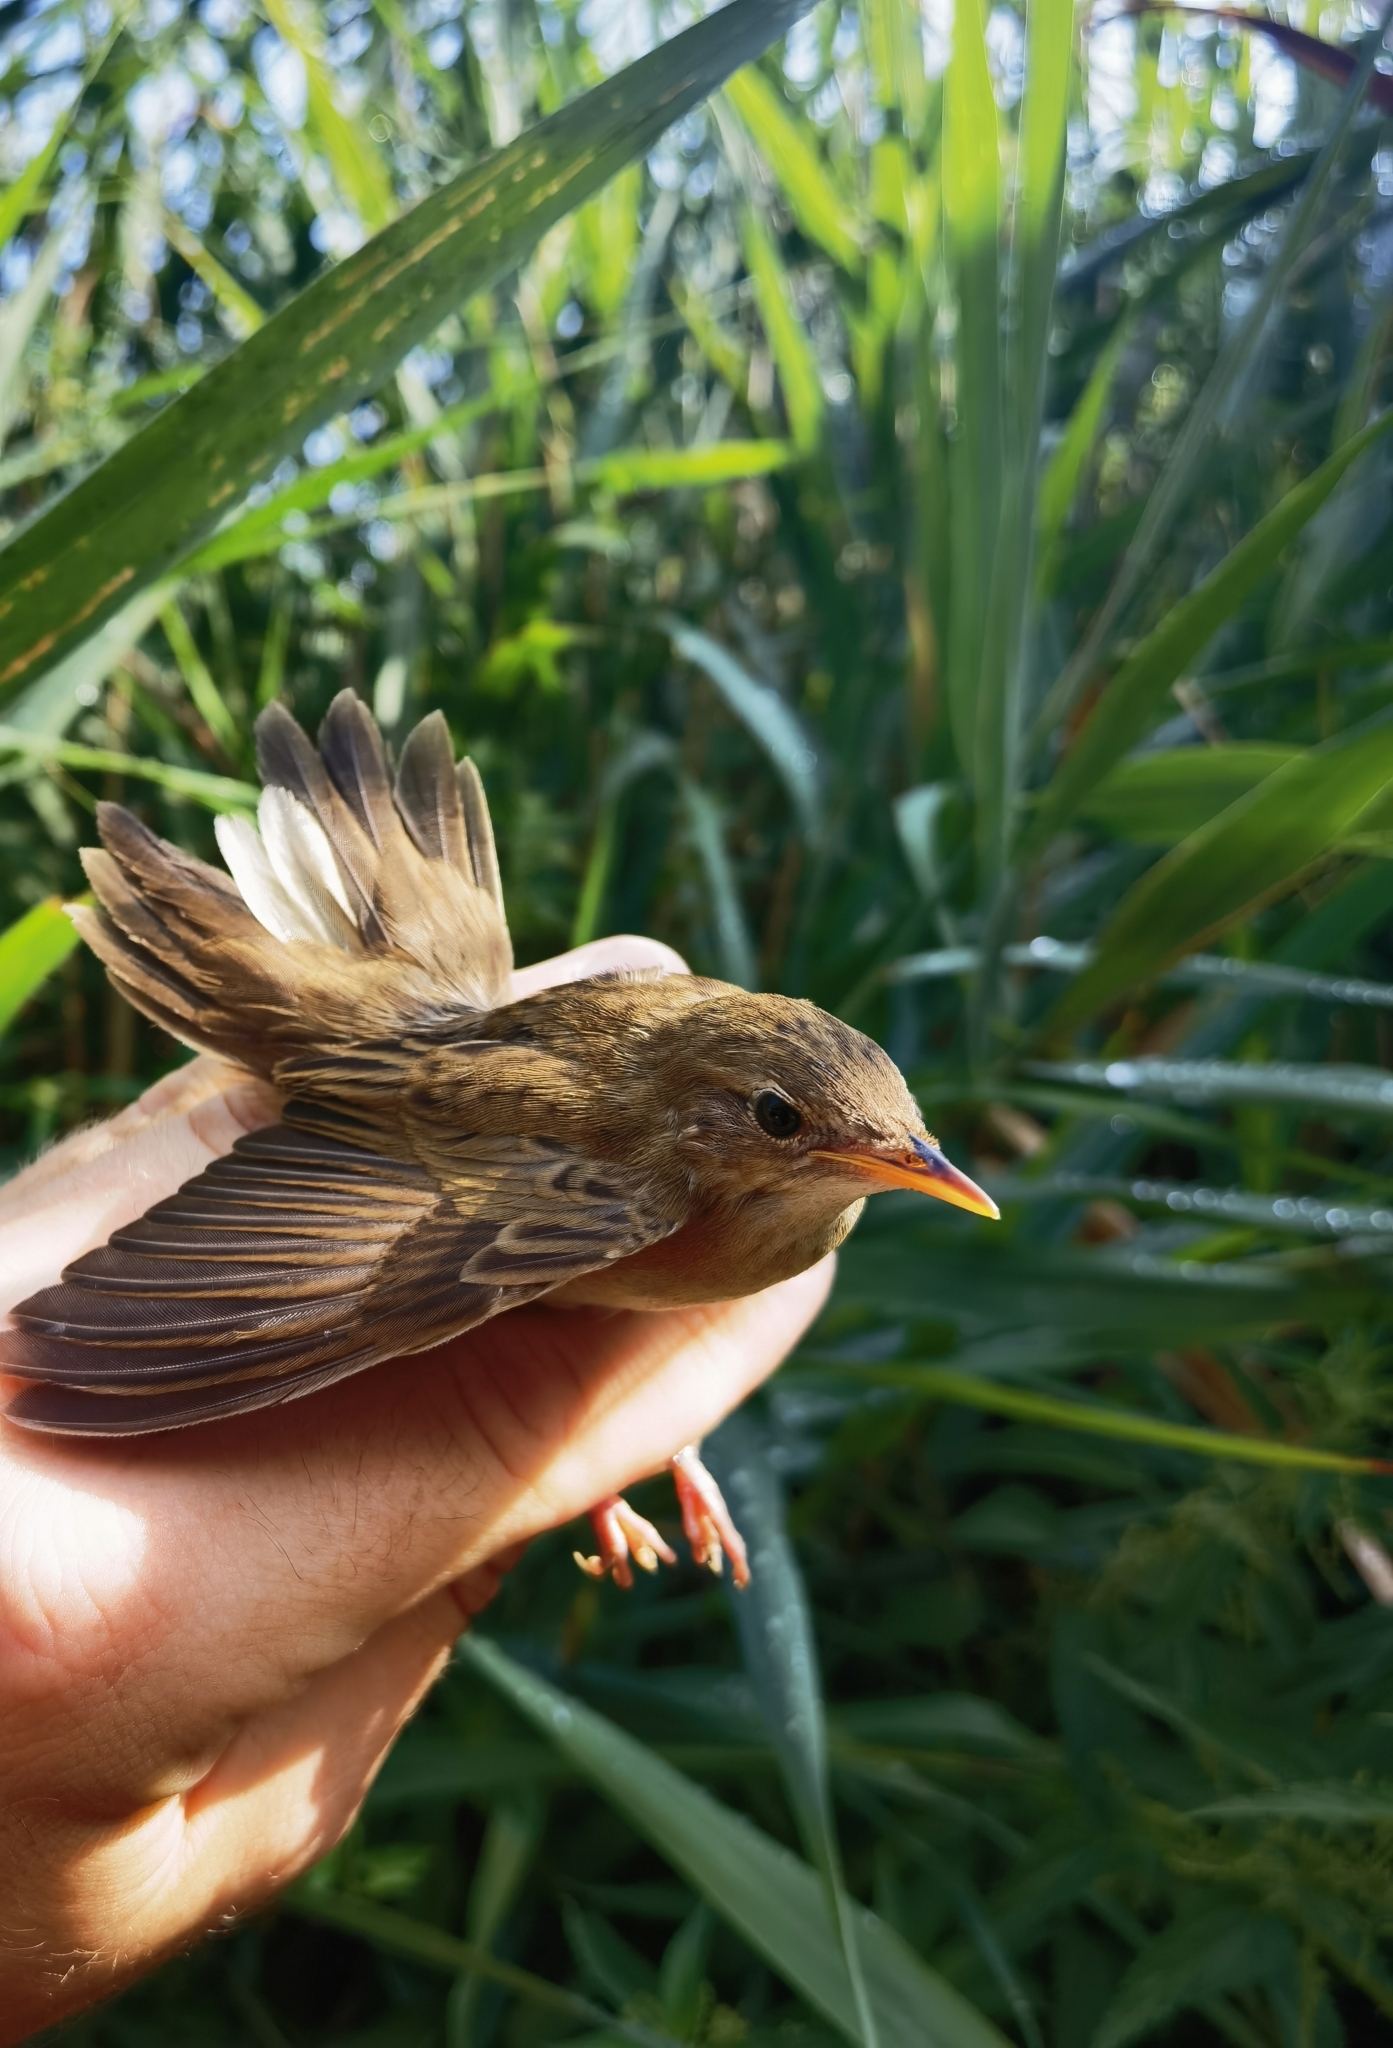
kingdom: Animalia
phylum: Chordata
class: Aves
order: Passeriformes
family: Locustellidae
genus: Locustella
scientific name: Locustella naevia
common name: Common grasshopper warbler
